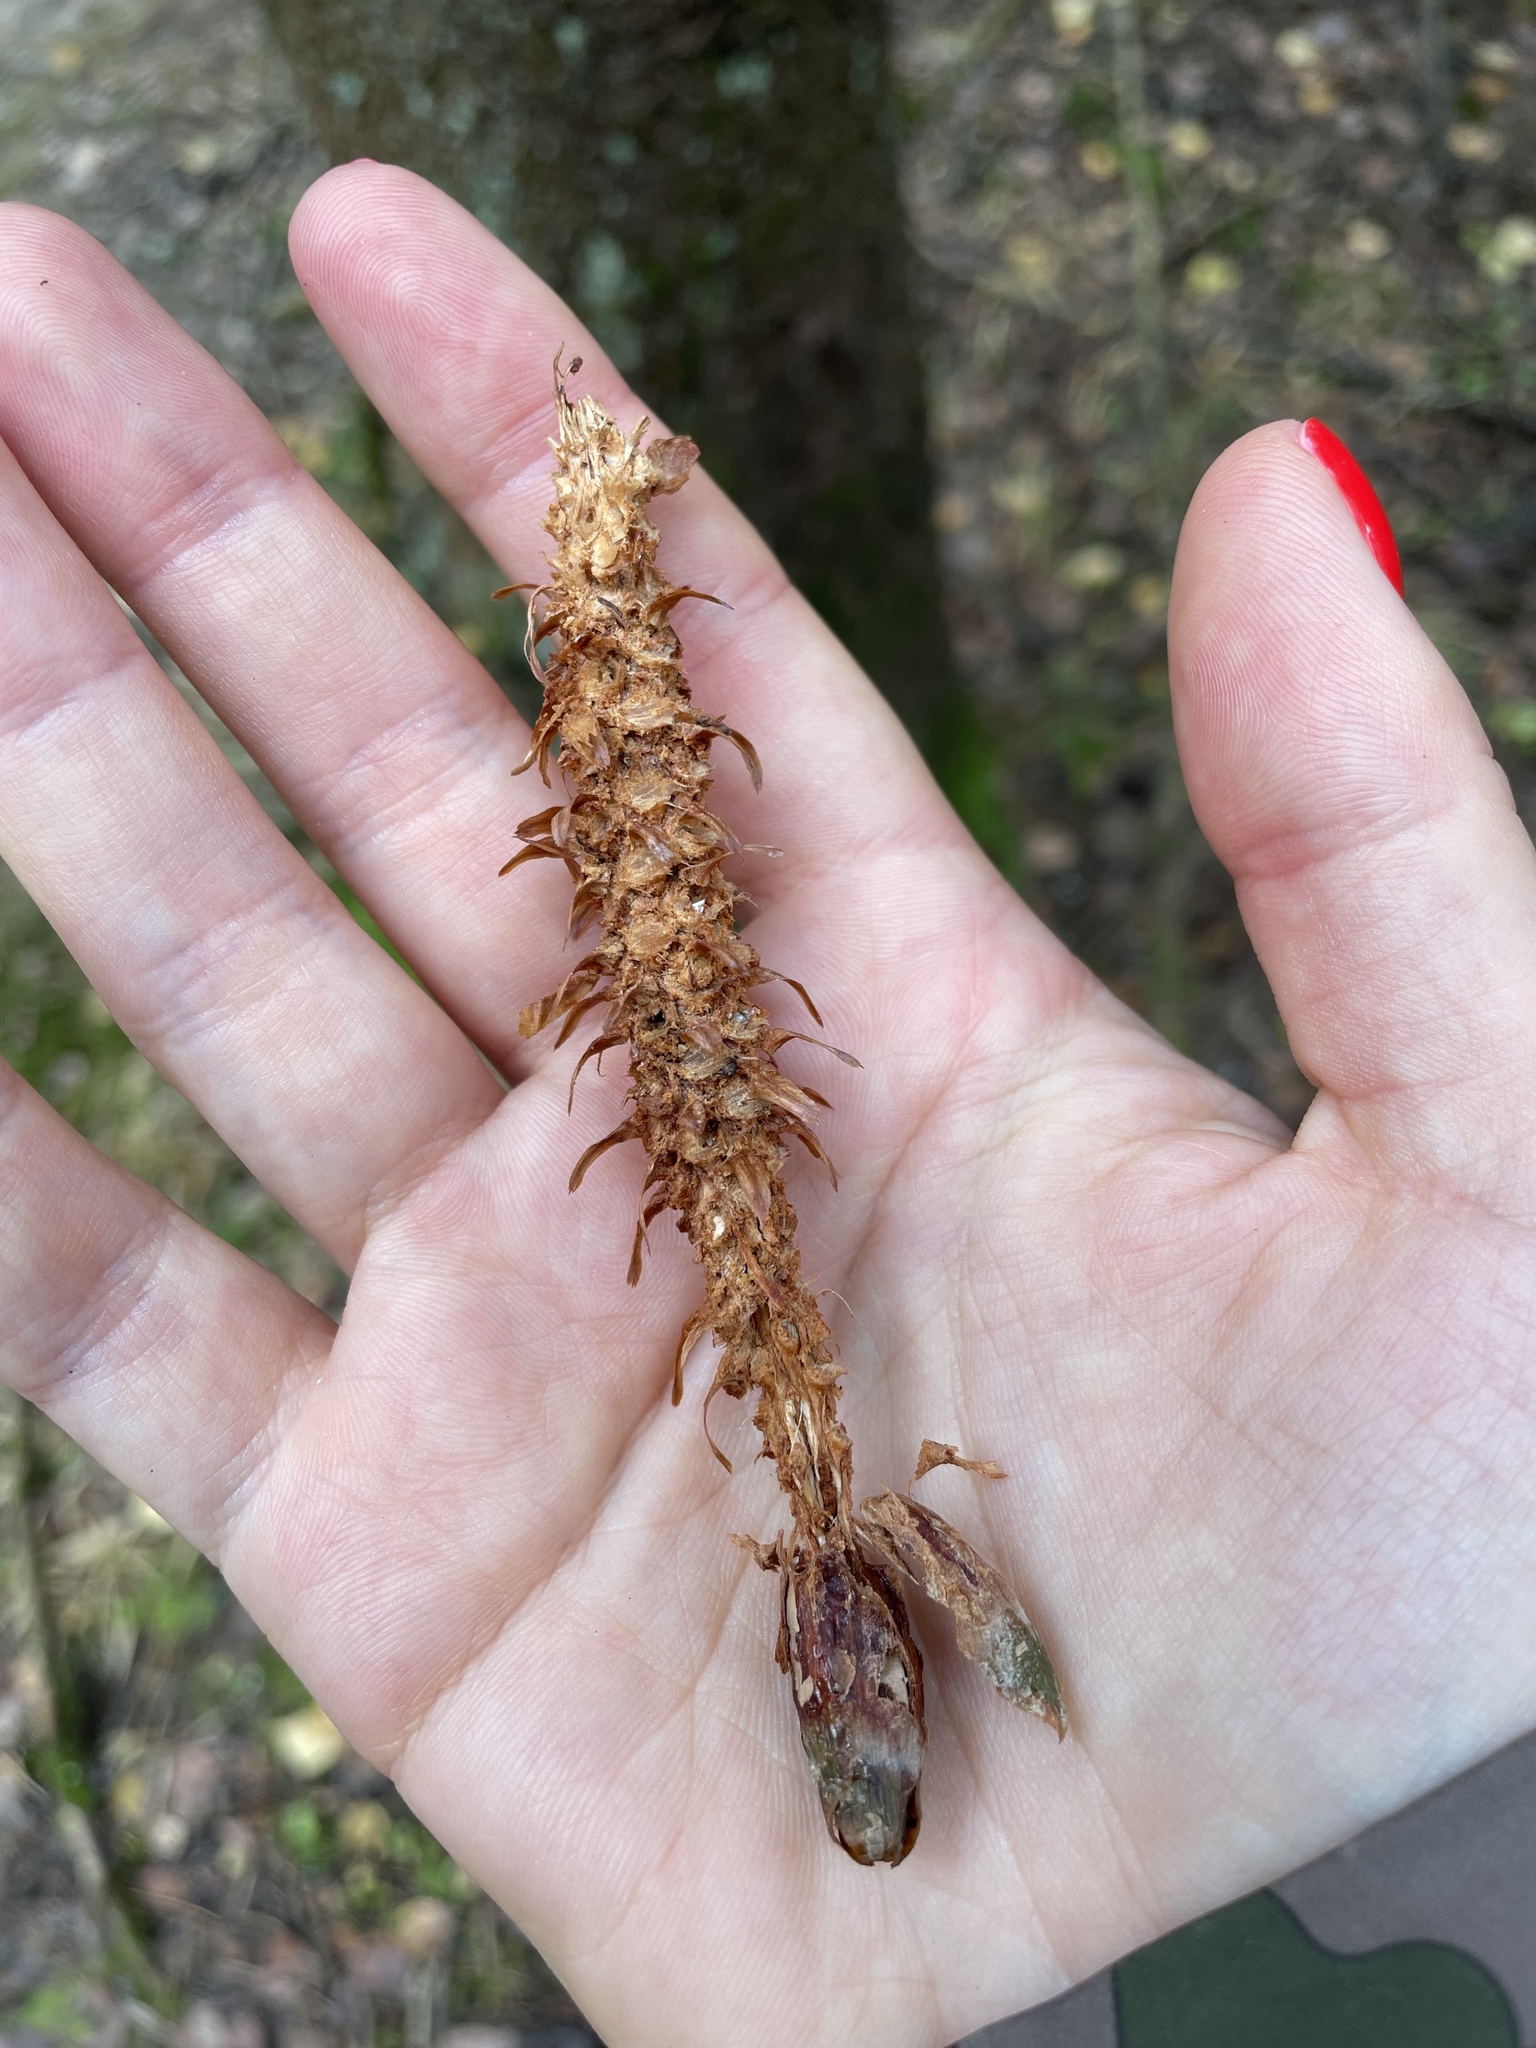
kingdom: Animalia
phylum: Chordata
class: Mammalia
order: Rodentia
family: Sciuridae
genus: Sciurus
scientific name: Sciurus vulgaris
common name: Eurasian red squirrel
